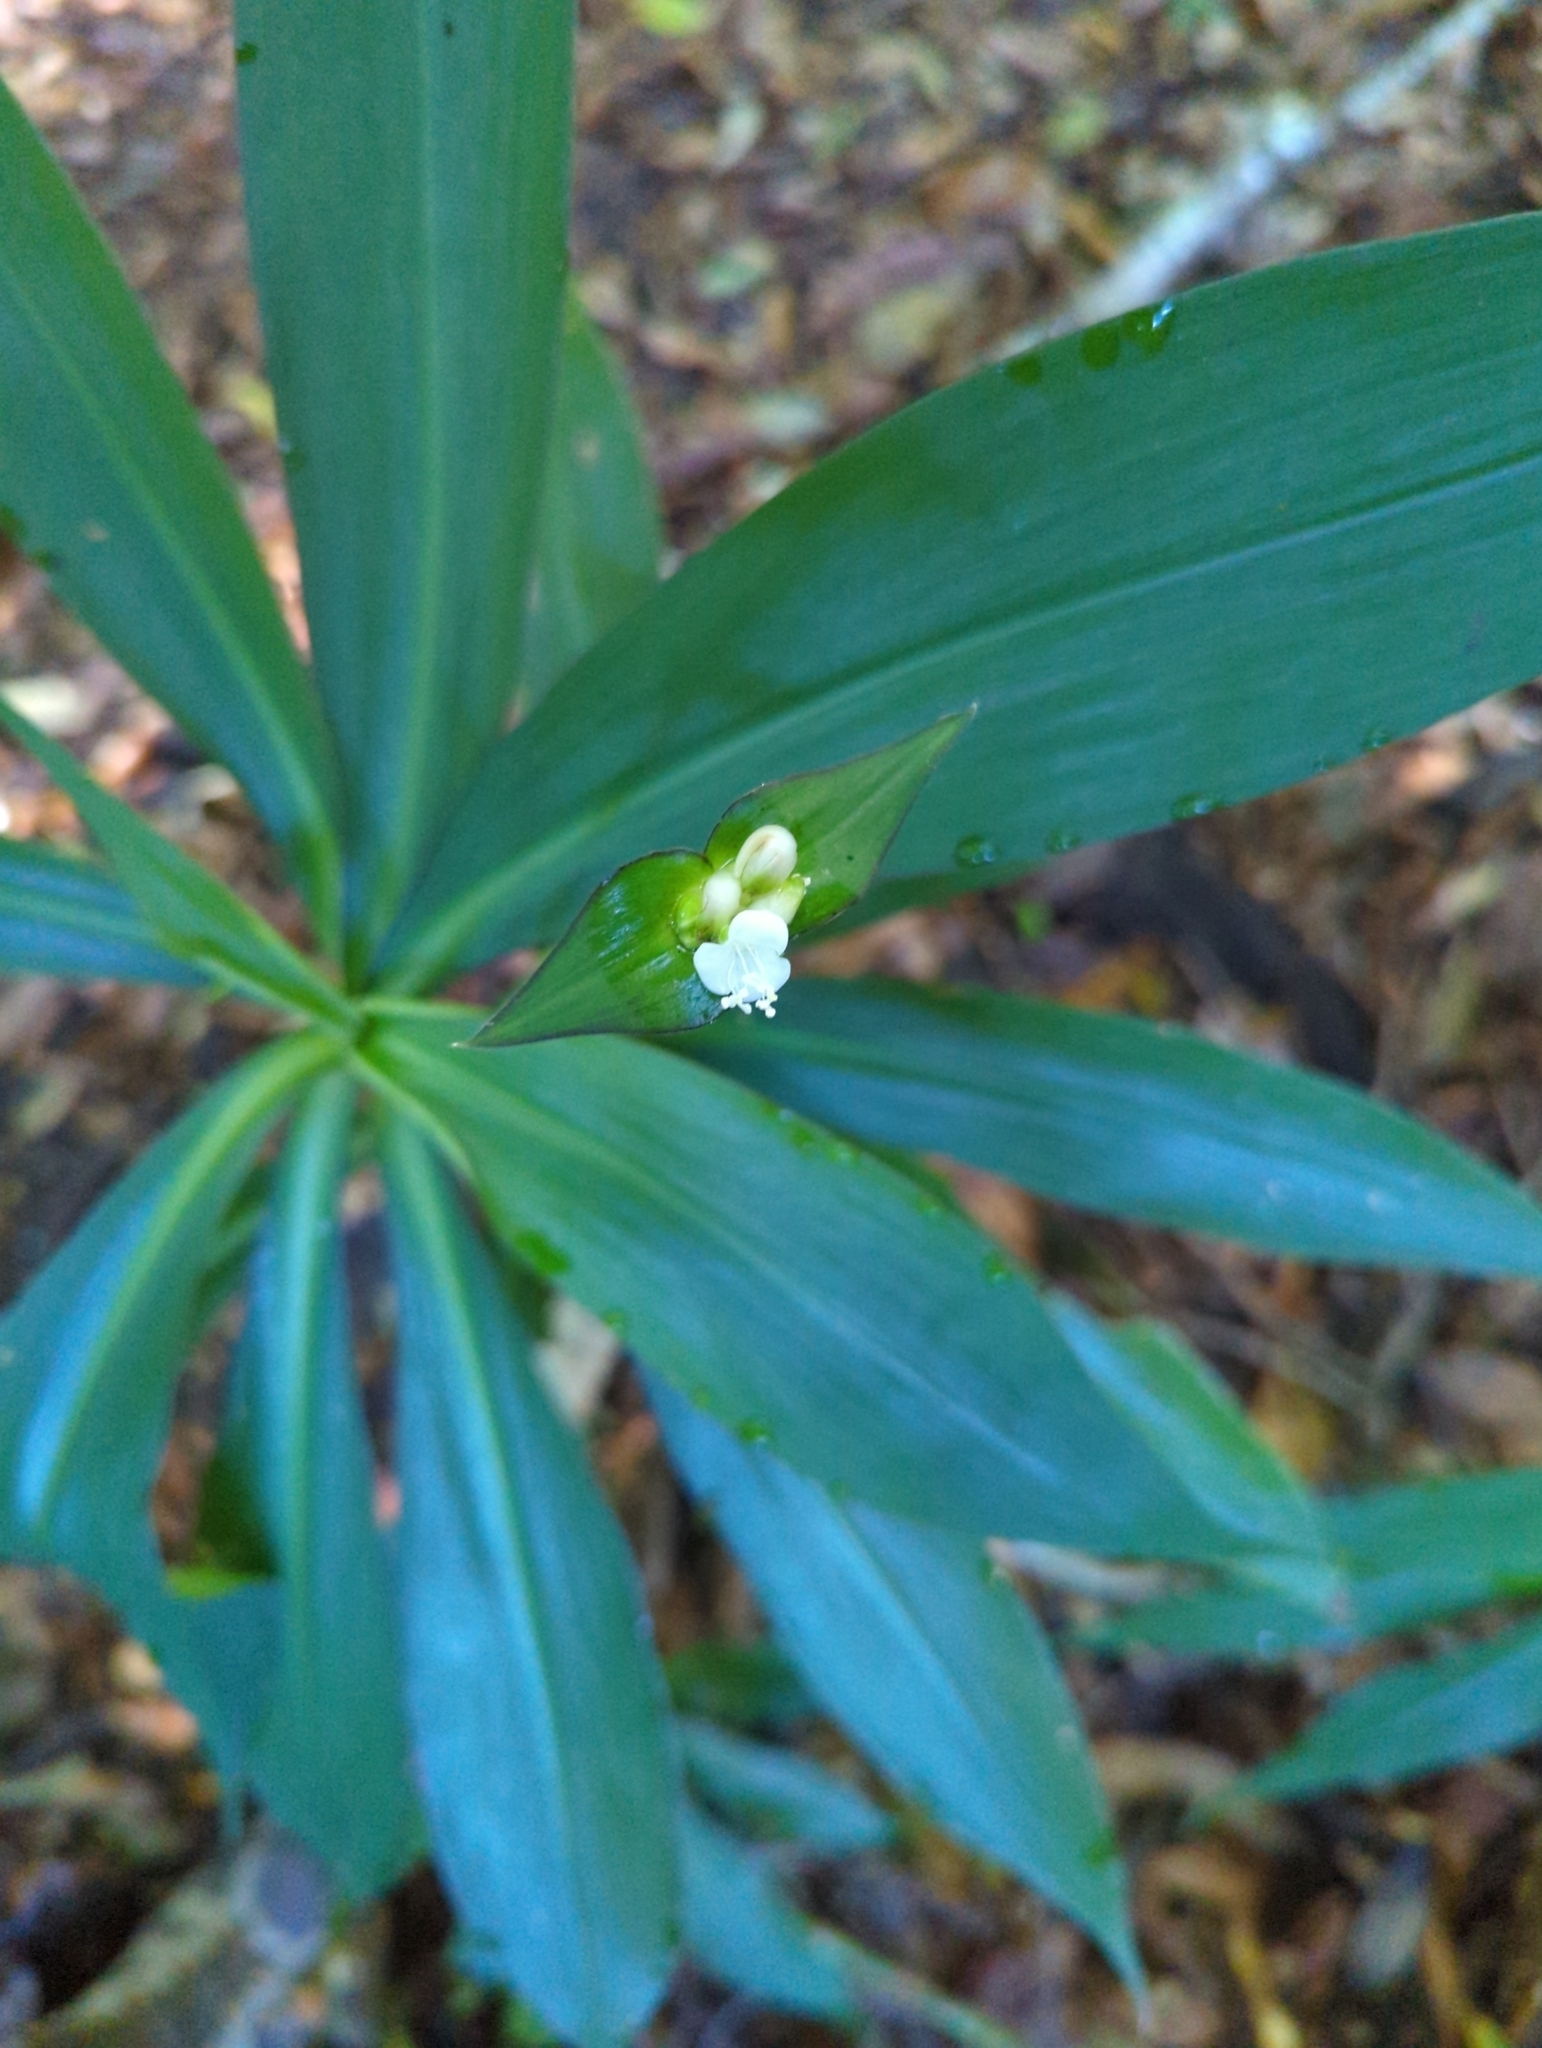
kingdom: Plantae
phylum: Tracheophyta
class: Liliopsida
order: Commelinales
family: Commelinaceae
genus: Tradescantia
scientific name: Tradescantia zanonia
